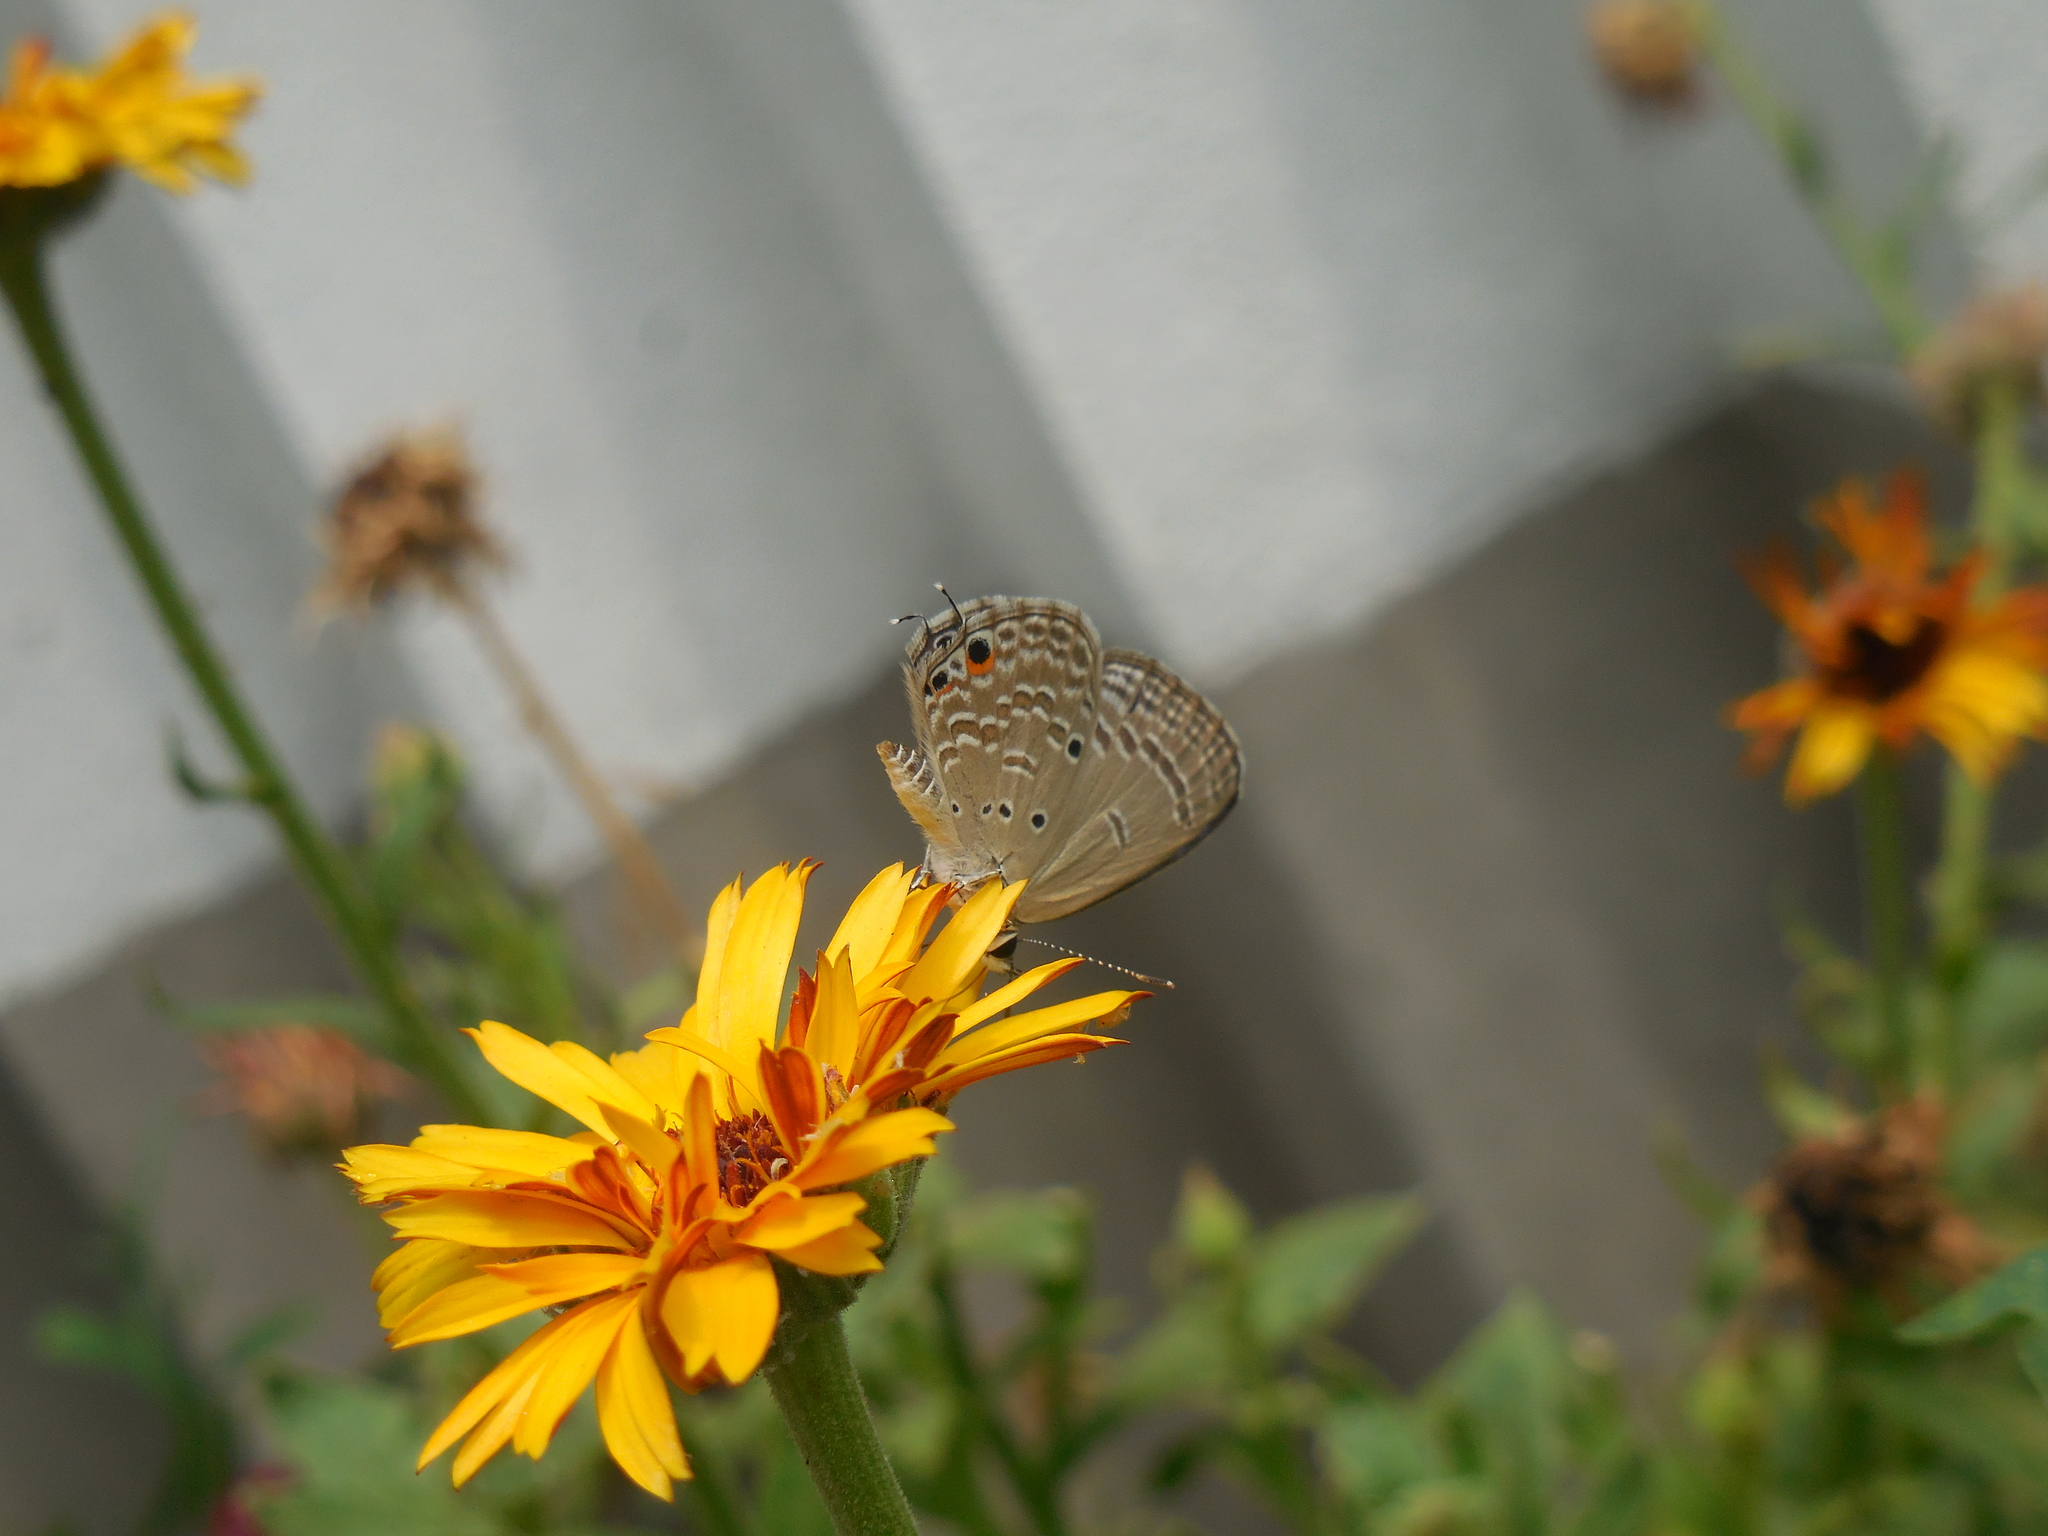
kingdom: Animalia
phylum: Arthropoda
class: Insecta
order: Lepidoptera
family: Lycaenidae
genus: Luthrodes
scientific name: Luthrodes pandava
